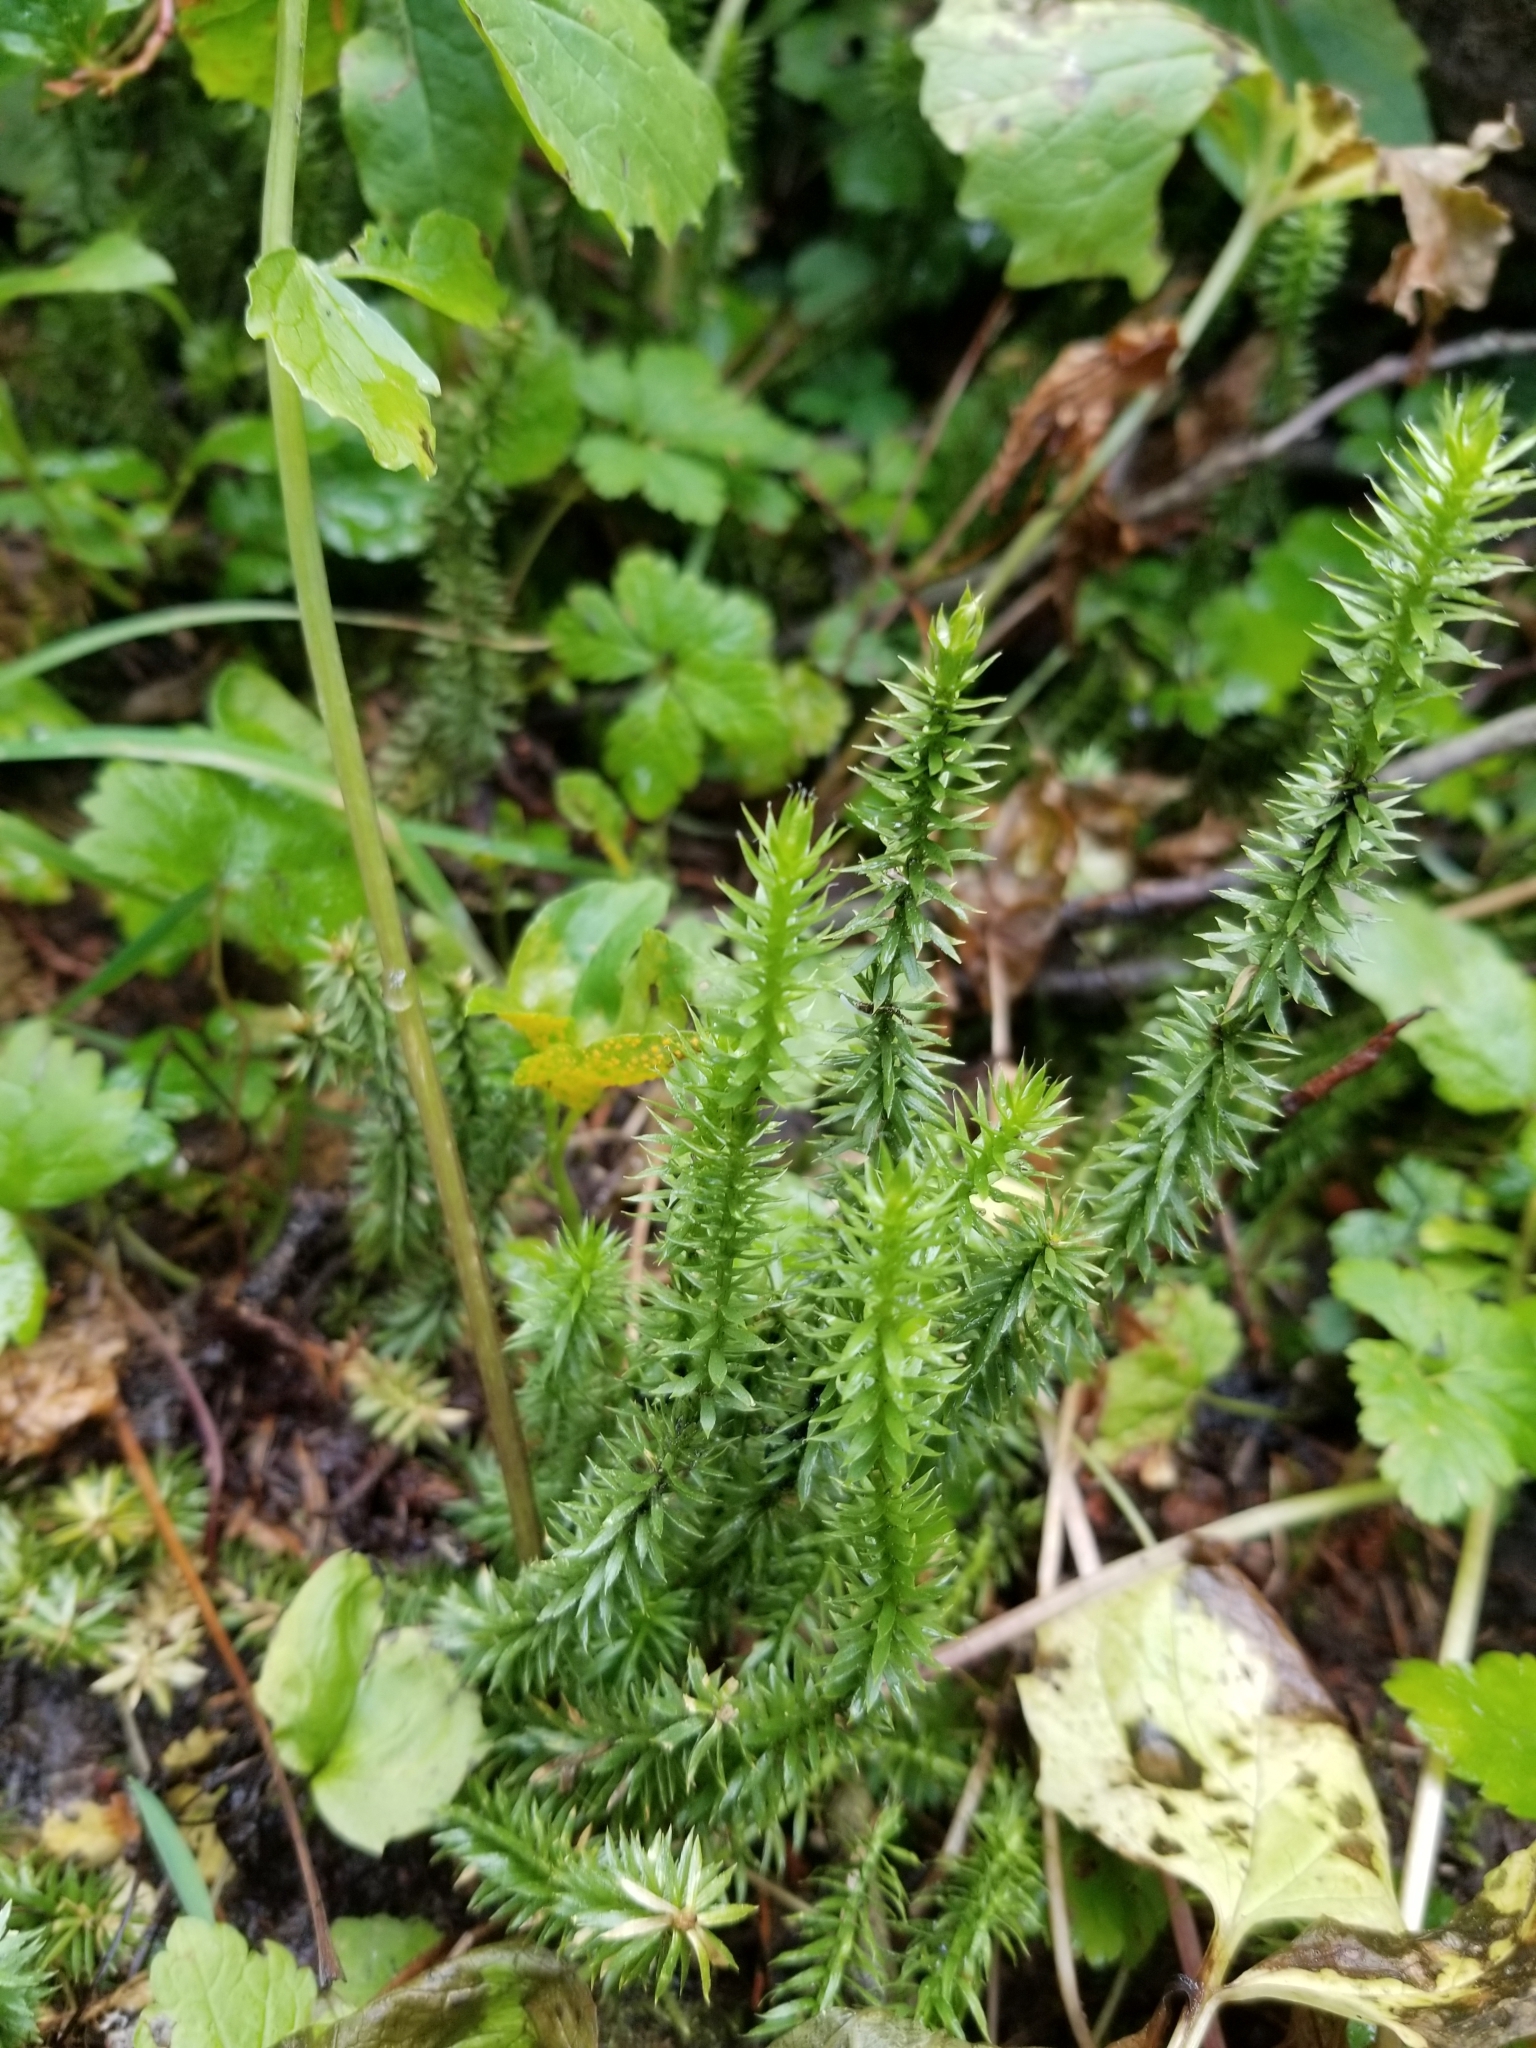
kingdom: Plantae
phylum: Tracheophyta
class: Lycopodiopsida
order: Lycopodiales
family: Lycopodiaceae
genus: Spinulum
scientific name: Spinulum annotinum
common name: Interrupted club-moss
